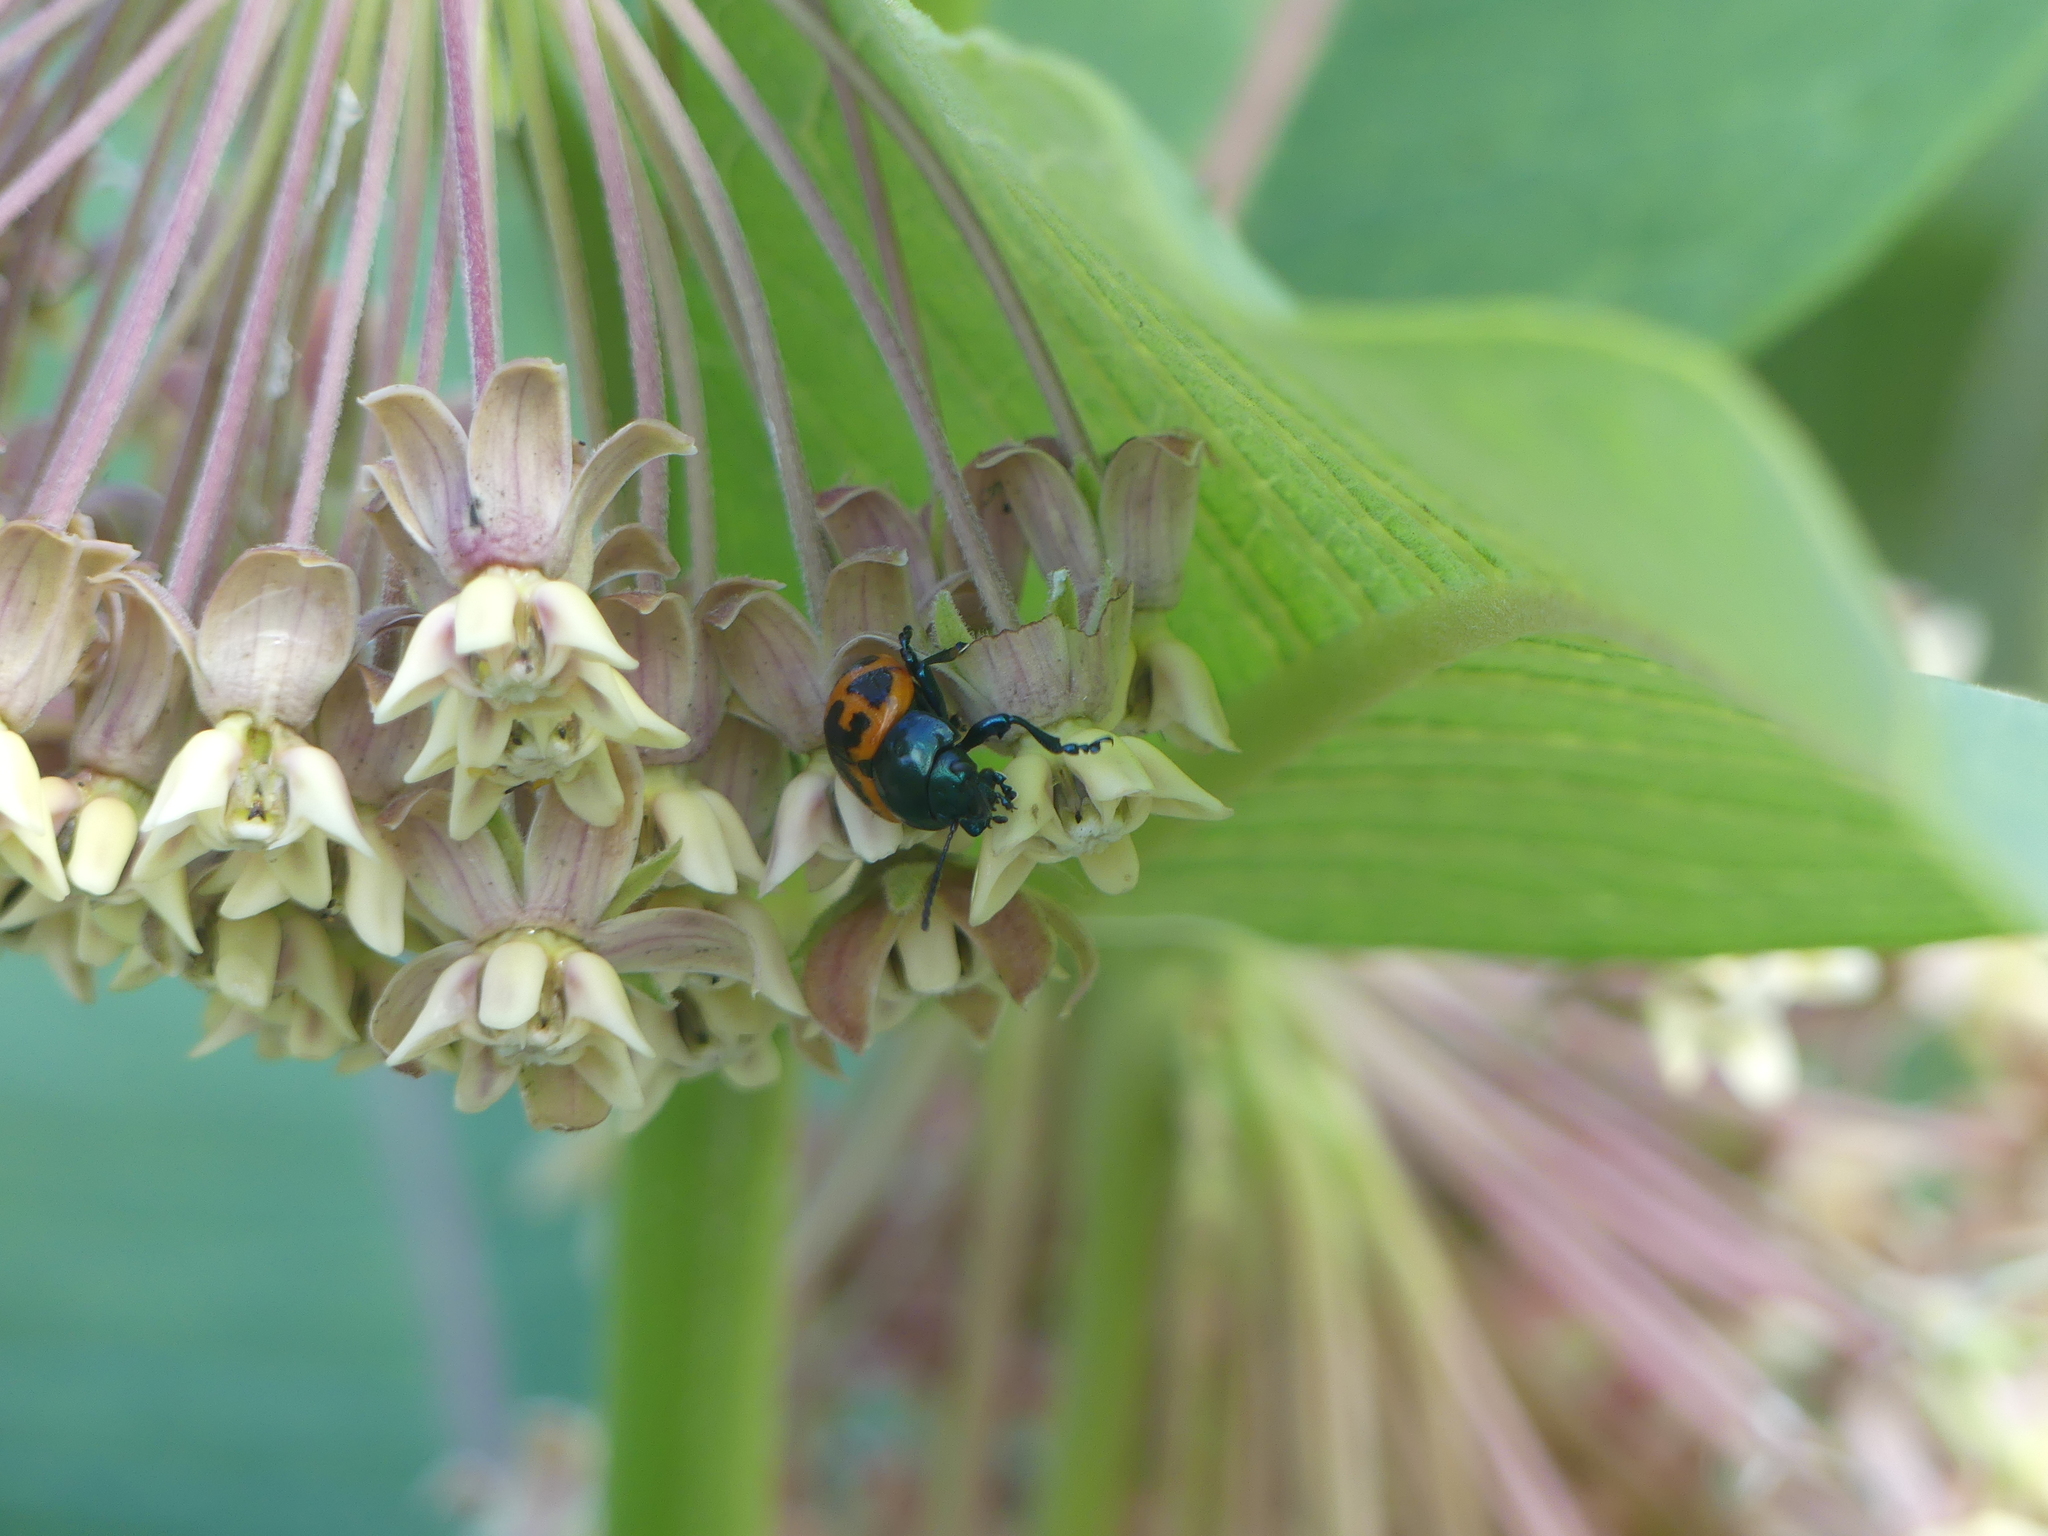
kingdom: Plantae
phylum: Tracheophyta
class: Magnoliopsida
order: Gentianales
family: Apocynaceae
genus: Asclepias
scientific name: Asclepias syriaca
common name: Common milkweed
